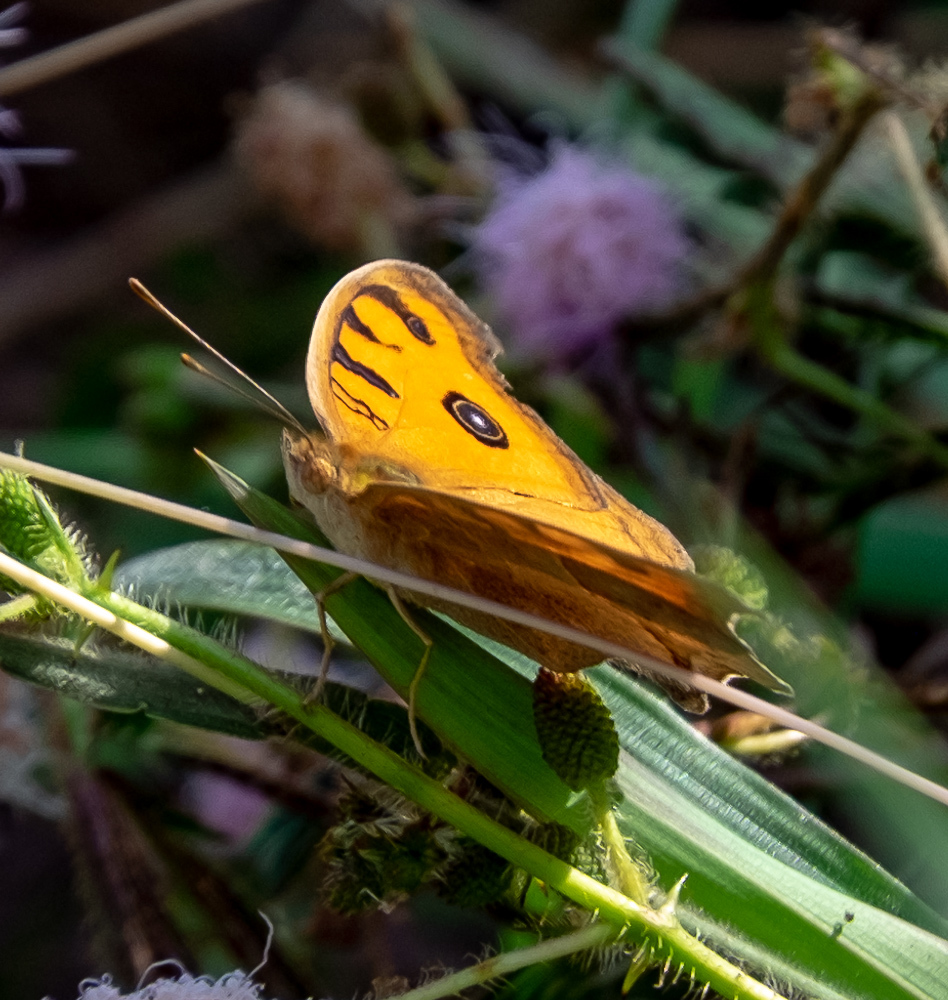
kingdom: Animalia
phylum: Arthropoda
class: Insecta
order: Lepidoptera
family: Nymphalidae
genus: Junonia
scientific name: Junonia almana
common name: Peacock pansy
